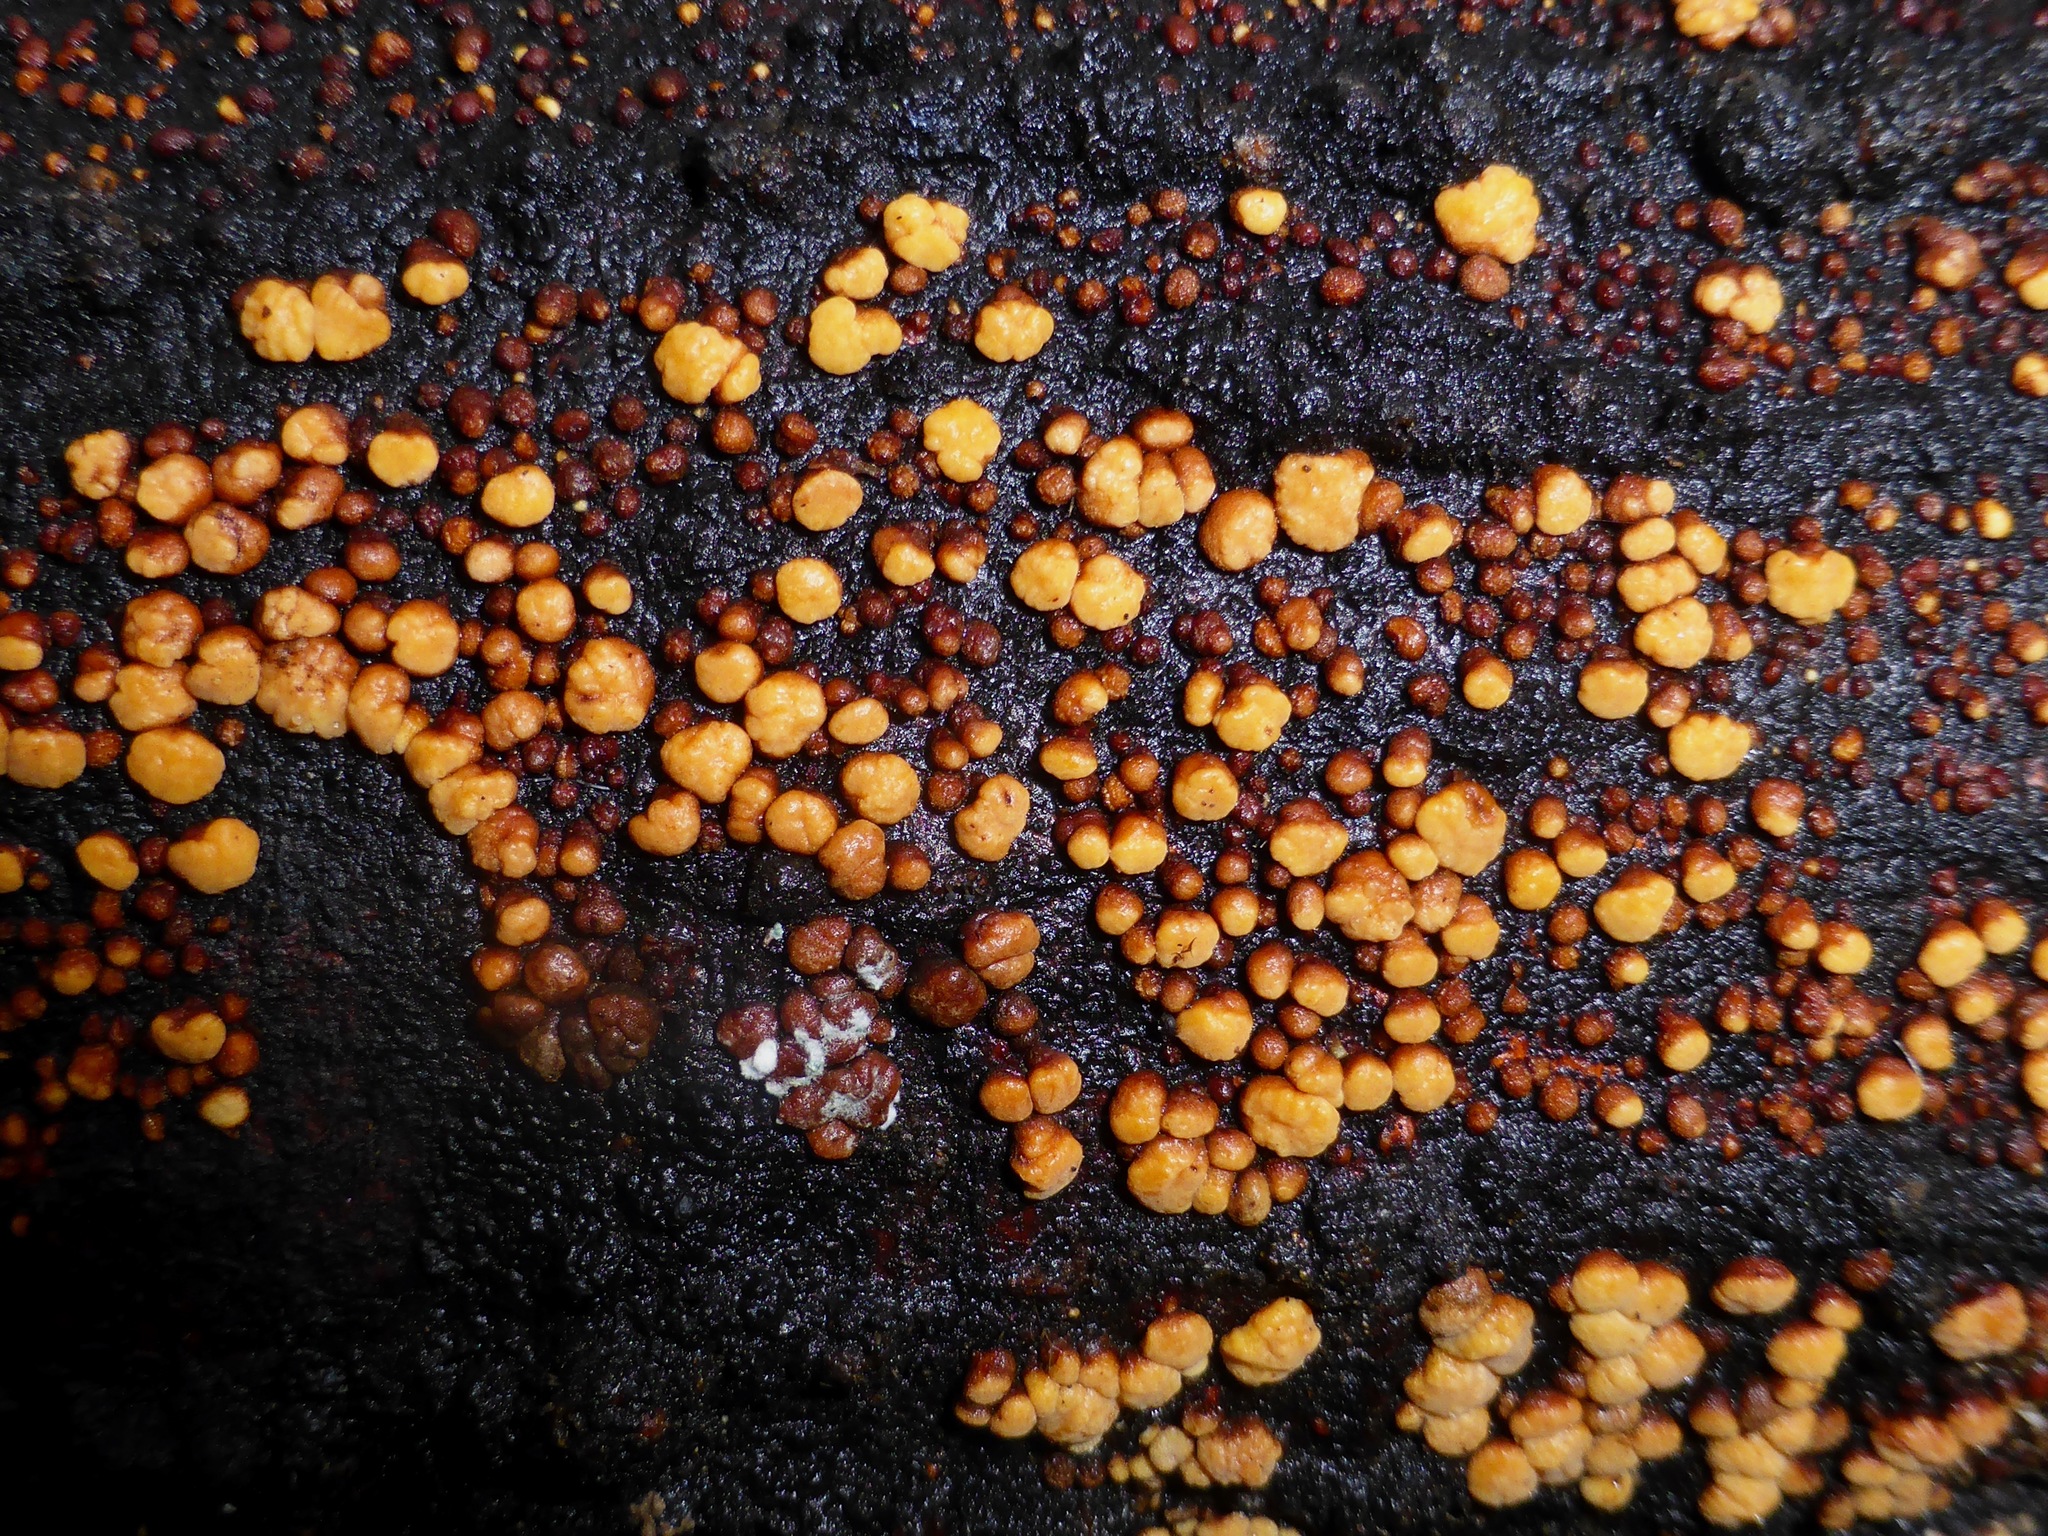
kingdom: Fungi
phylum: Basidiomycota
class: Agaricomycetes
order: Russulales
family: Stereaceae
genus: Aleurodiscus
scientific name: Aleurodiscus berggrenii
